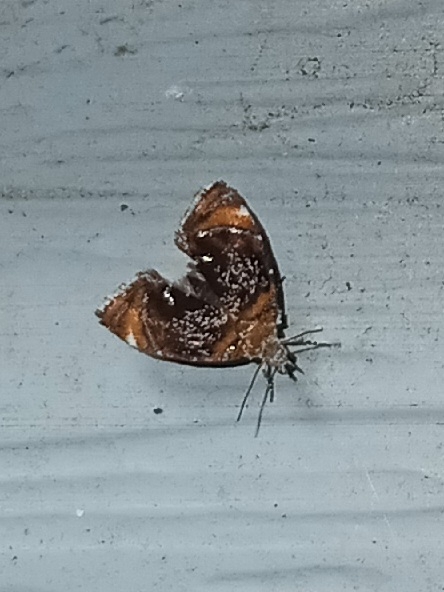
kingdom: Animalia
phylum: Arthropoda
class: Insecta
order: Lepidoptera
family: Choreutidae
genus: Prochoreutis
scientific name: Prochoreutis inflatella
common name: Skullcap skeletonizer moth
